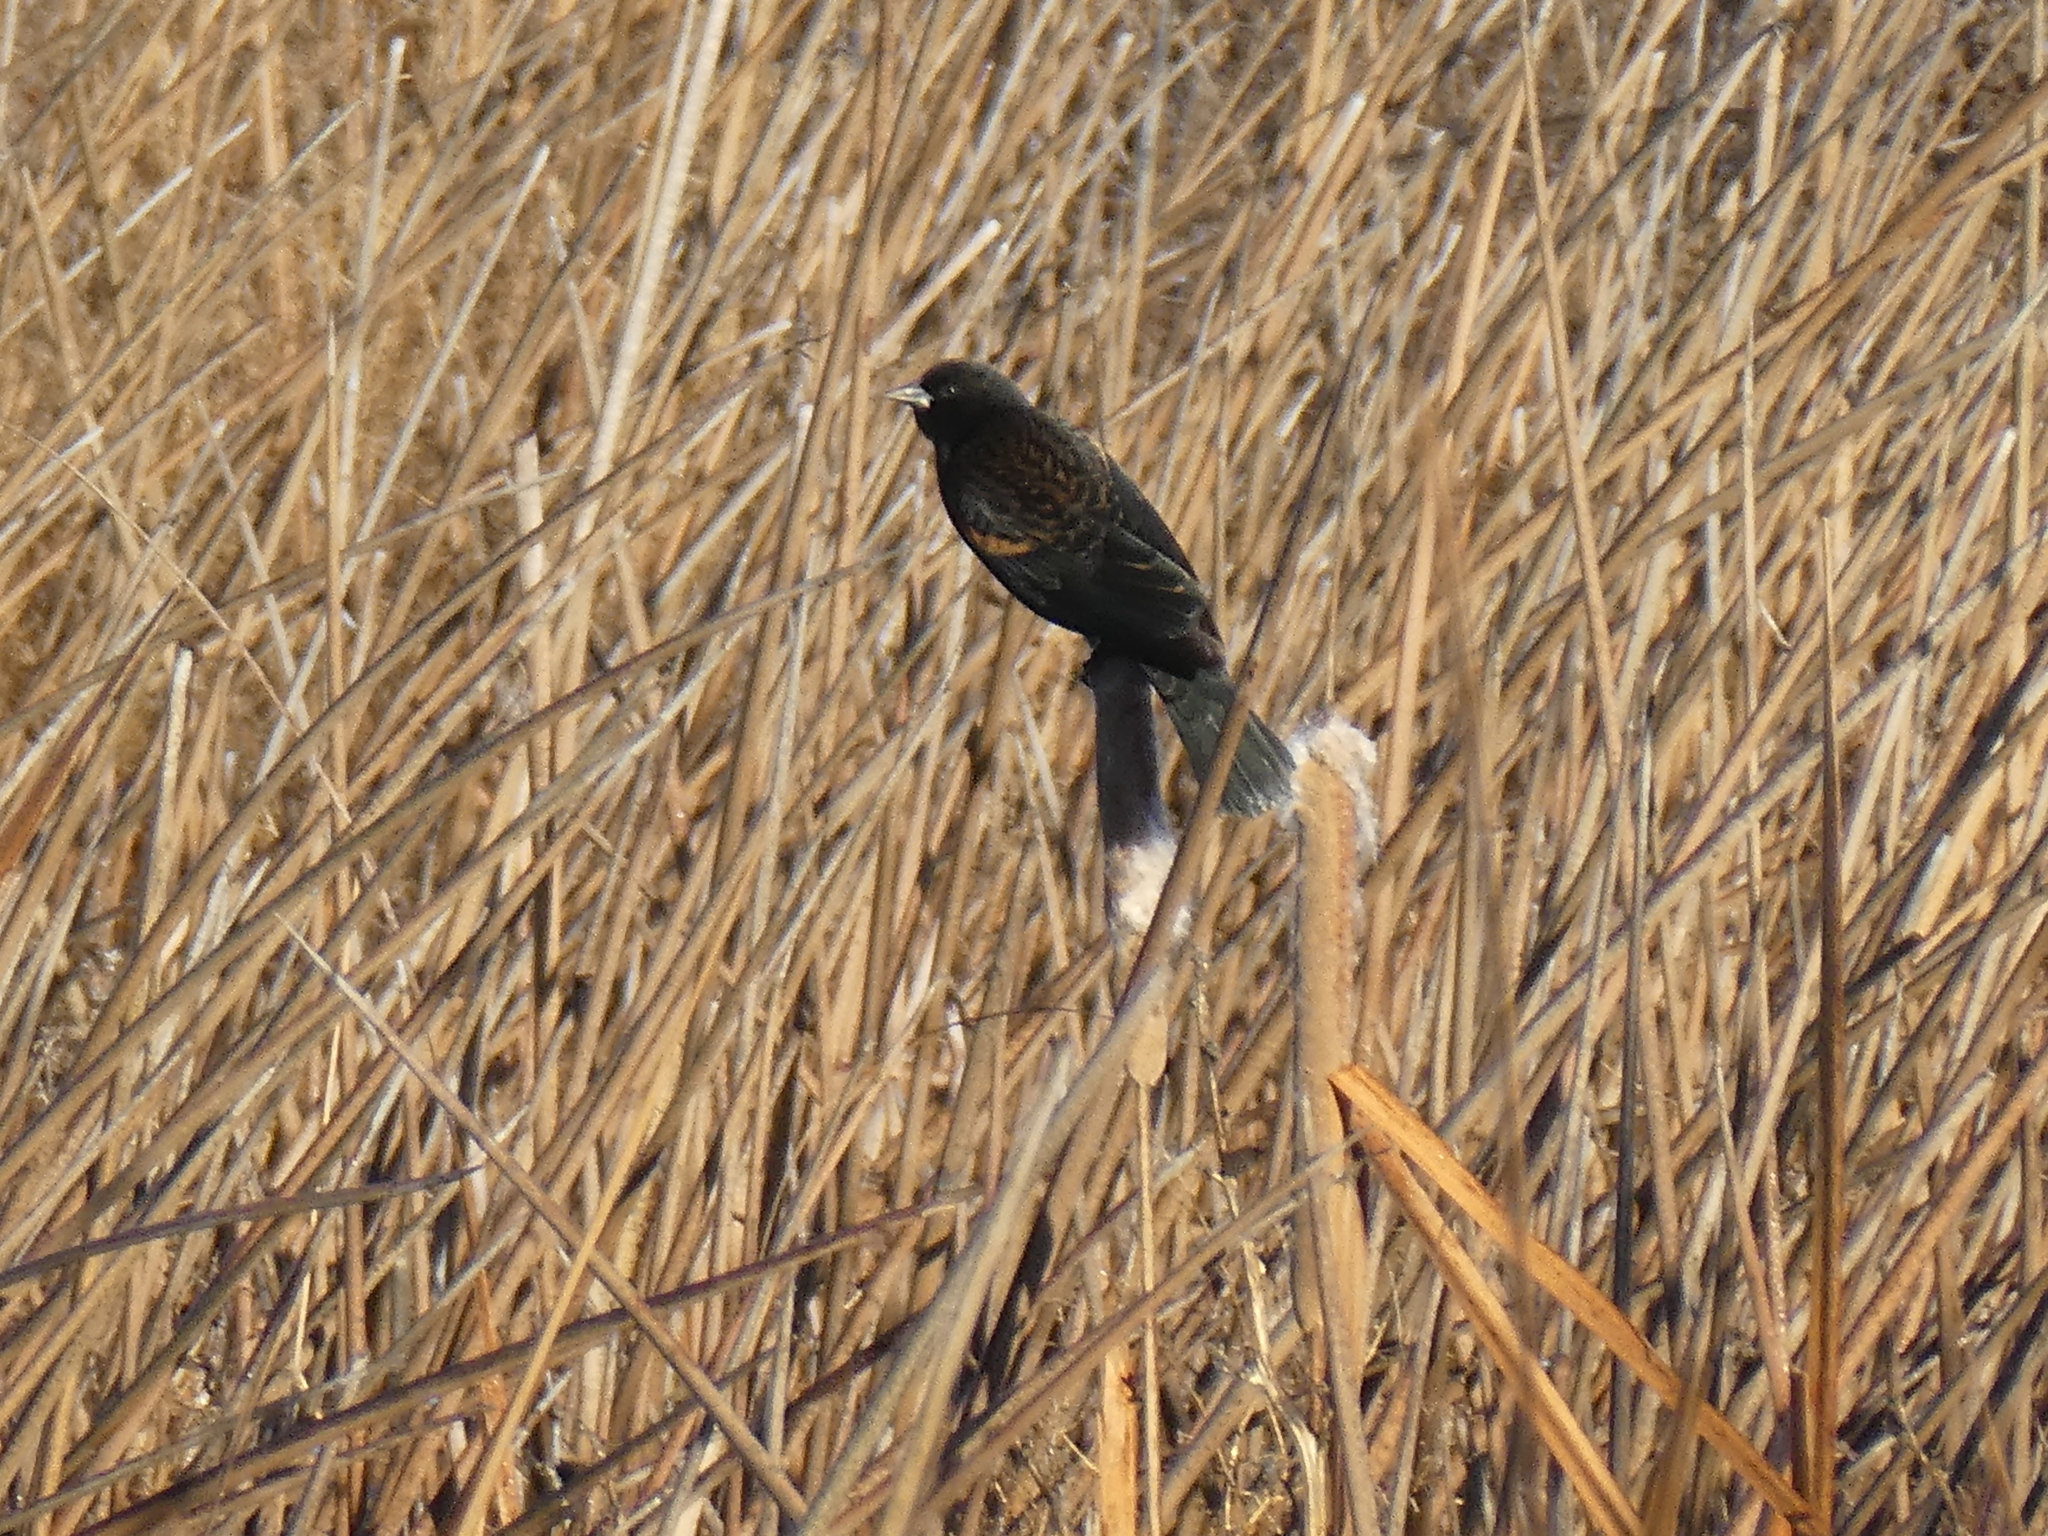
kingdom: Animalia
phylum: Chordata
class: Aves
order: Passeriformes
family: Icteridae
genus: Agelaius
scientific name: Agelaius phoeniceus
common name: Red-winged blackbird
